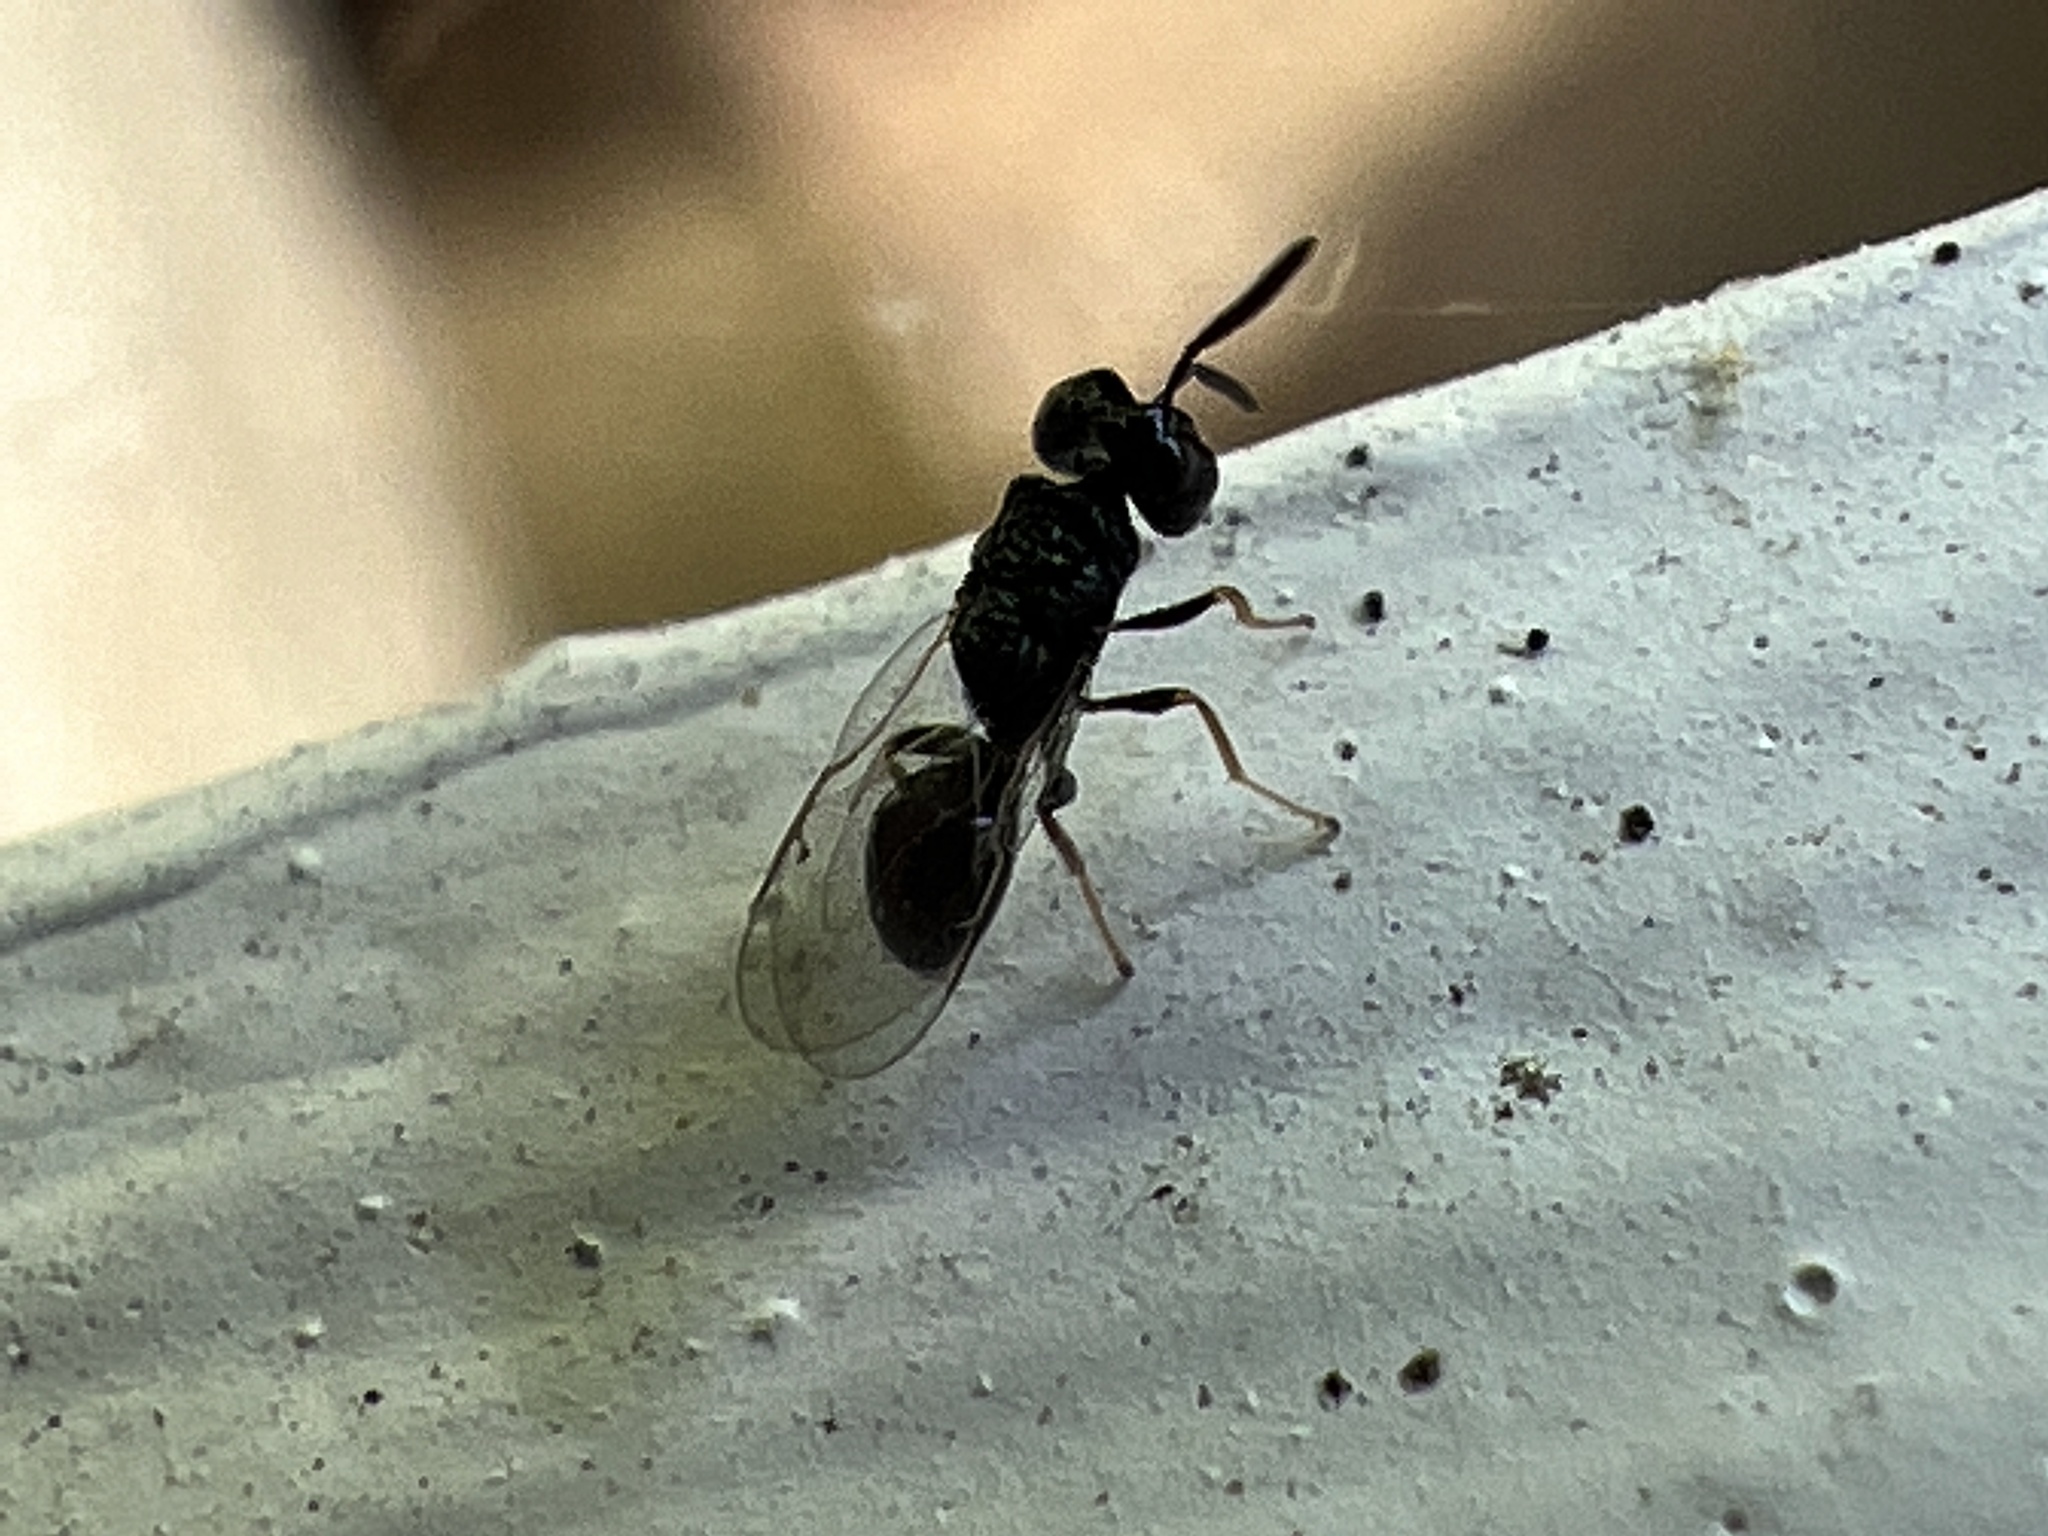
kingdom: Animalia
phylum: Arthropoda
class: Insecta
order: Hymenoptera
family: Perilampidae
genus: Steffanolampus
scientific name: Steffanolampus salicetum
